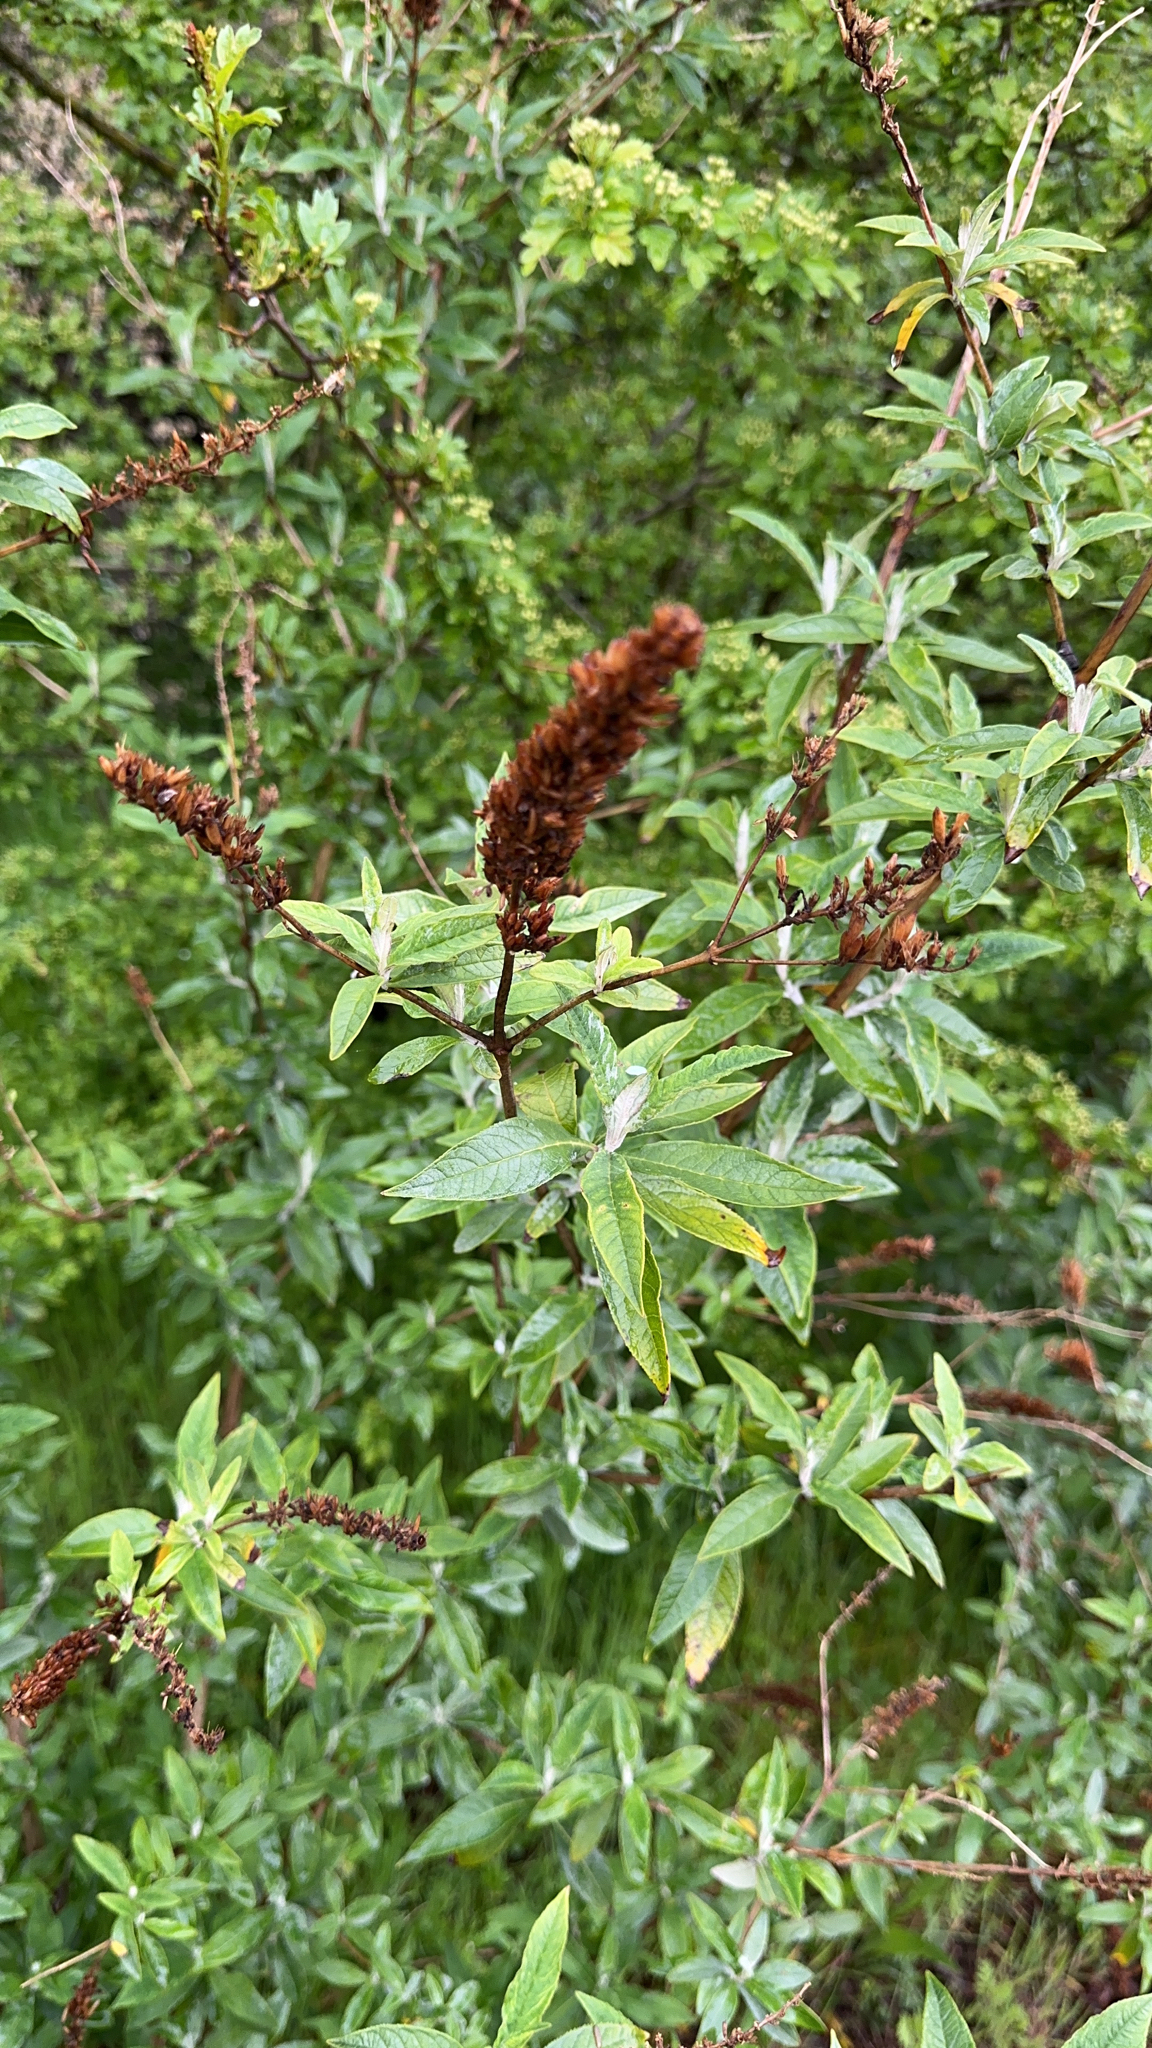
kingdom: Plantae
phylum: Tracheophyta
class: Magnoliopsida
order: Lamiales
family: Scrophulariaceae
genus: Buddleja
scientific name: Buddleja davidii
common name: Butterfly-bush
